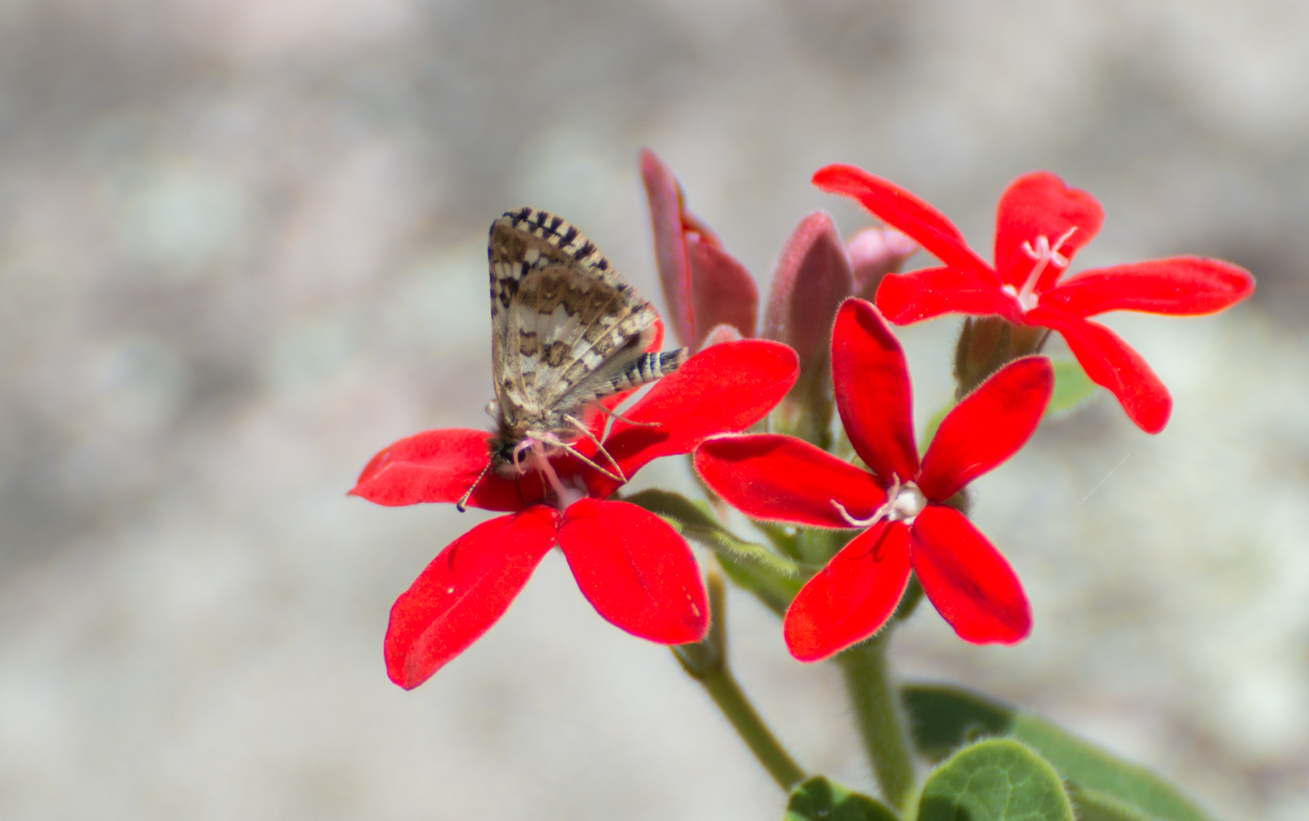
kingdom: Animalia
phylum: Arthropoda
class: Insecta
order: Lepidoptera
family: Hesperiidae
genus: Burnsius
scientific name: Burnsius orcynoides
